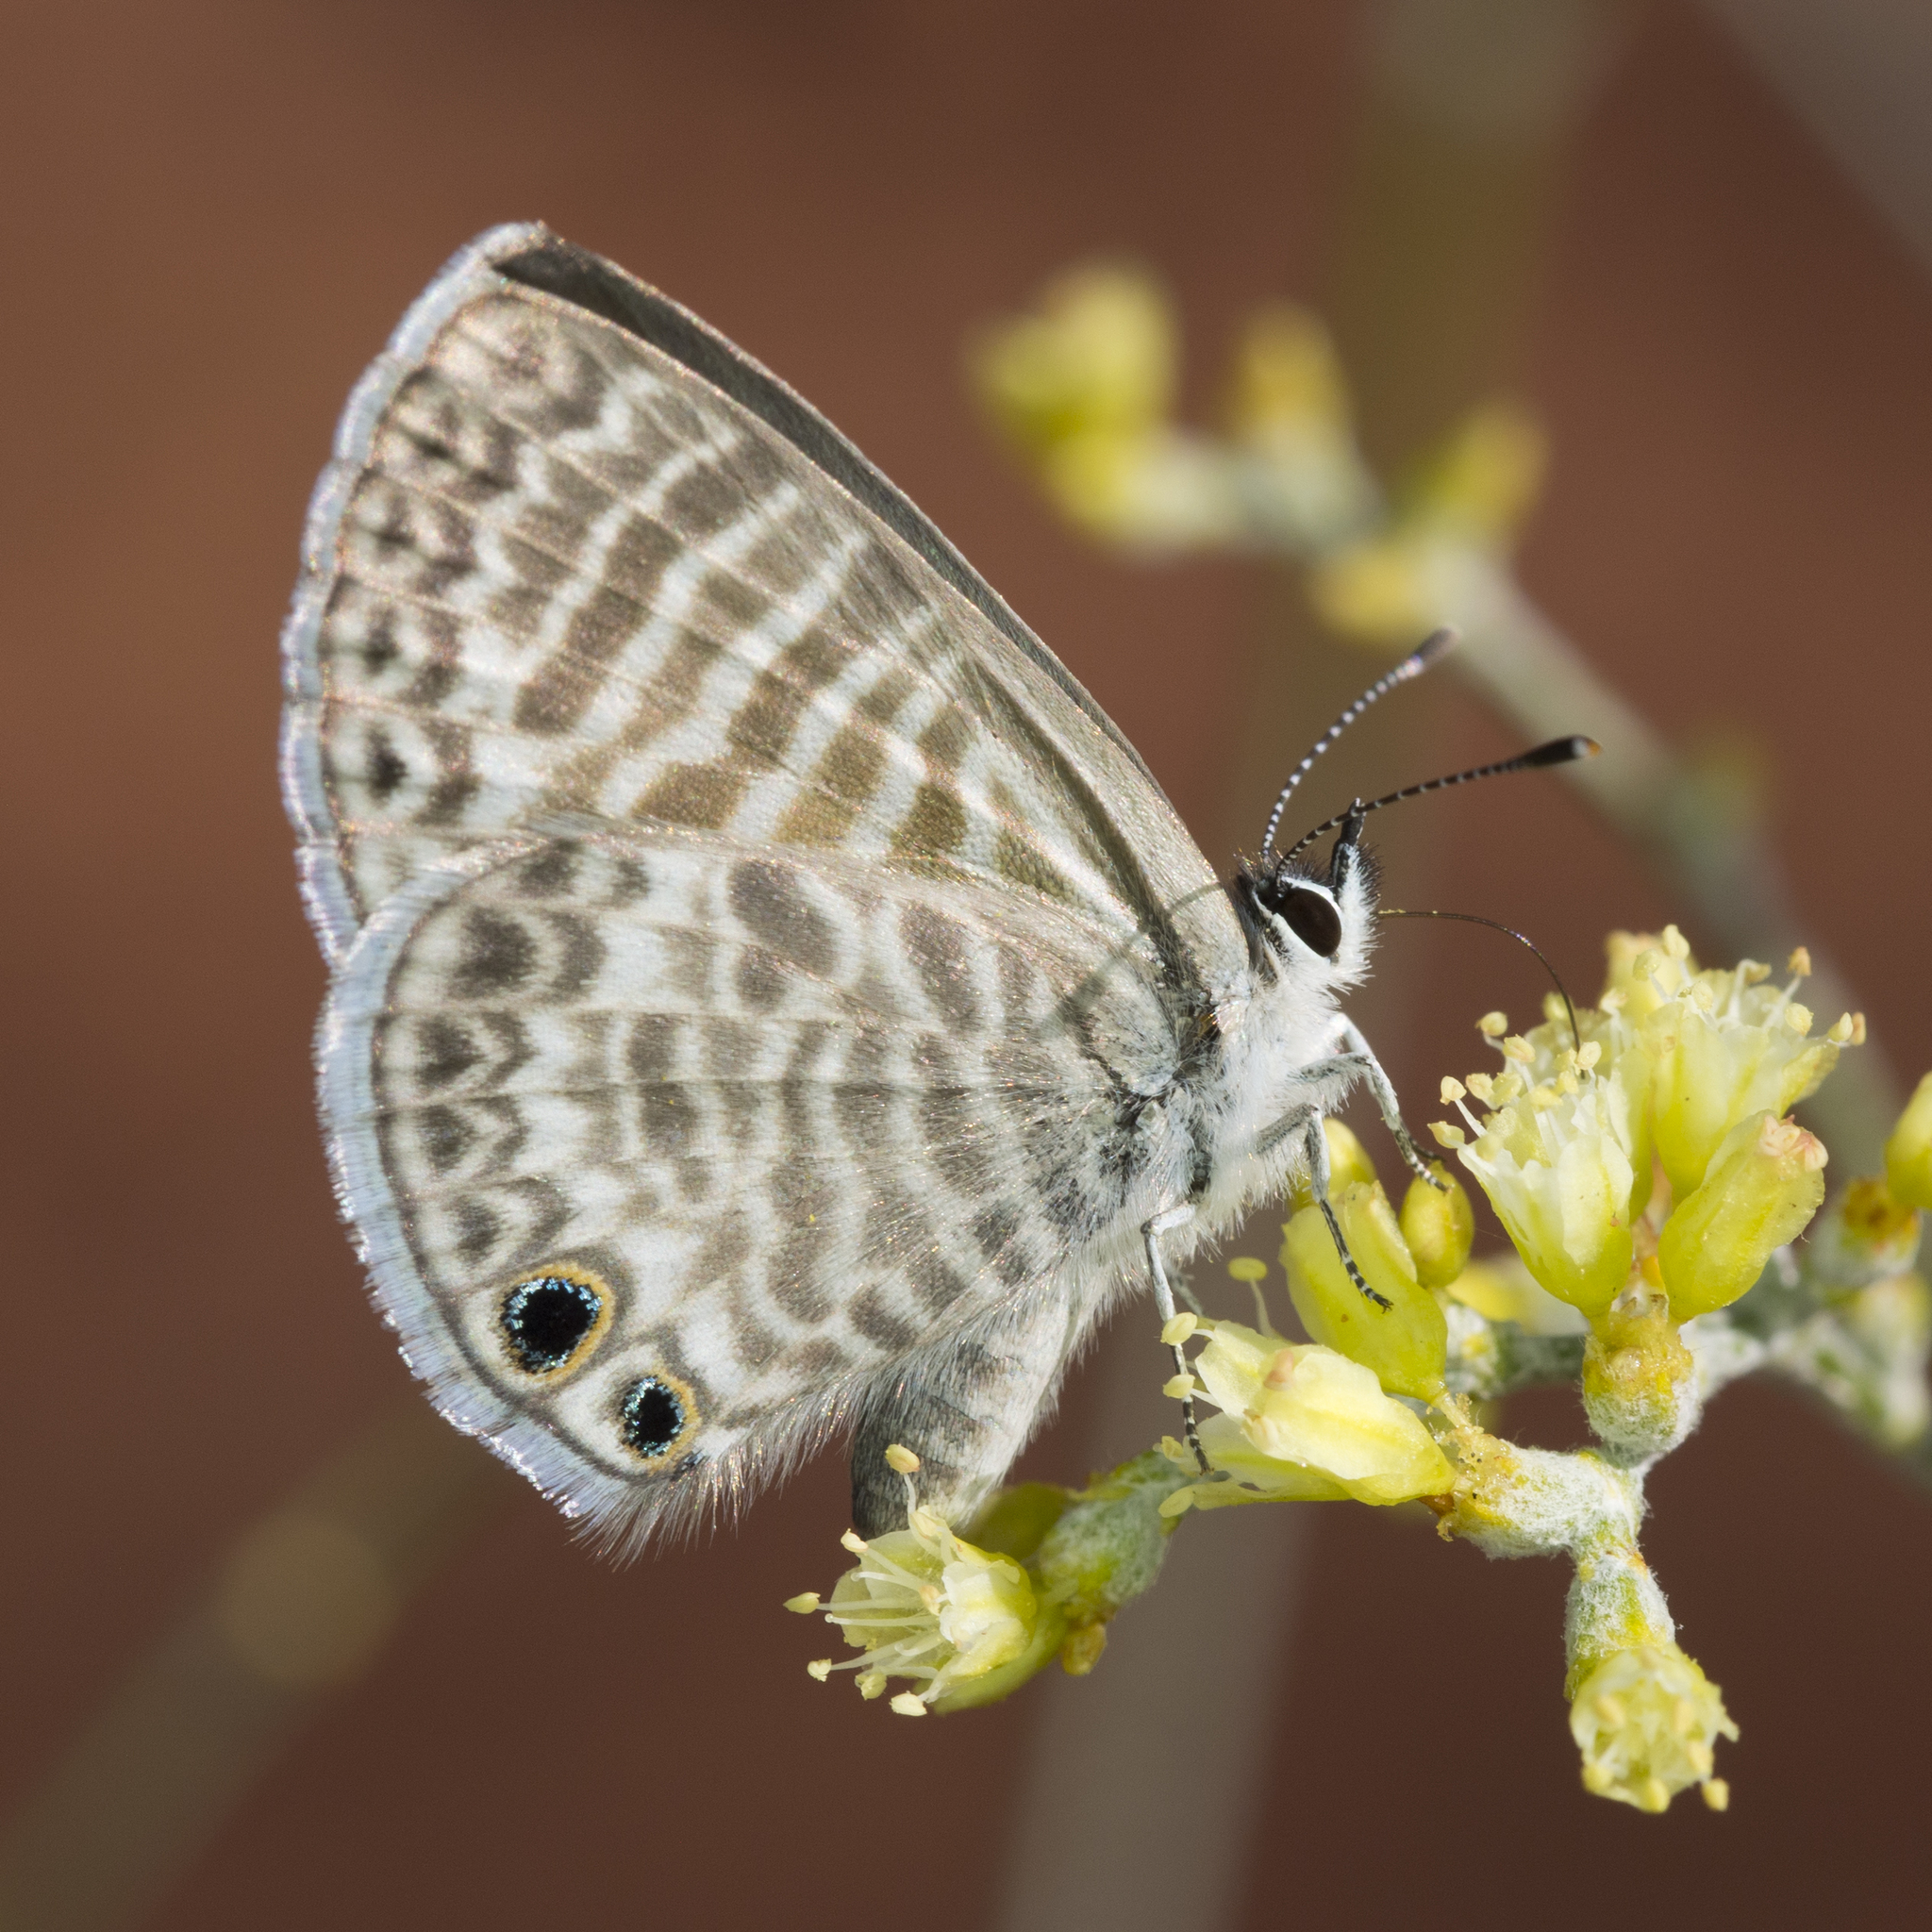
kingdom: Animalia
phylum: Arthropoda
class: Insecta
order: Lepidoptera
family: Lycaenidae
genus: Leptotes
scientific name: Leptotes marina
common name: Marine blue
